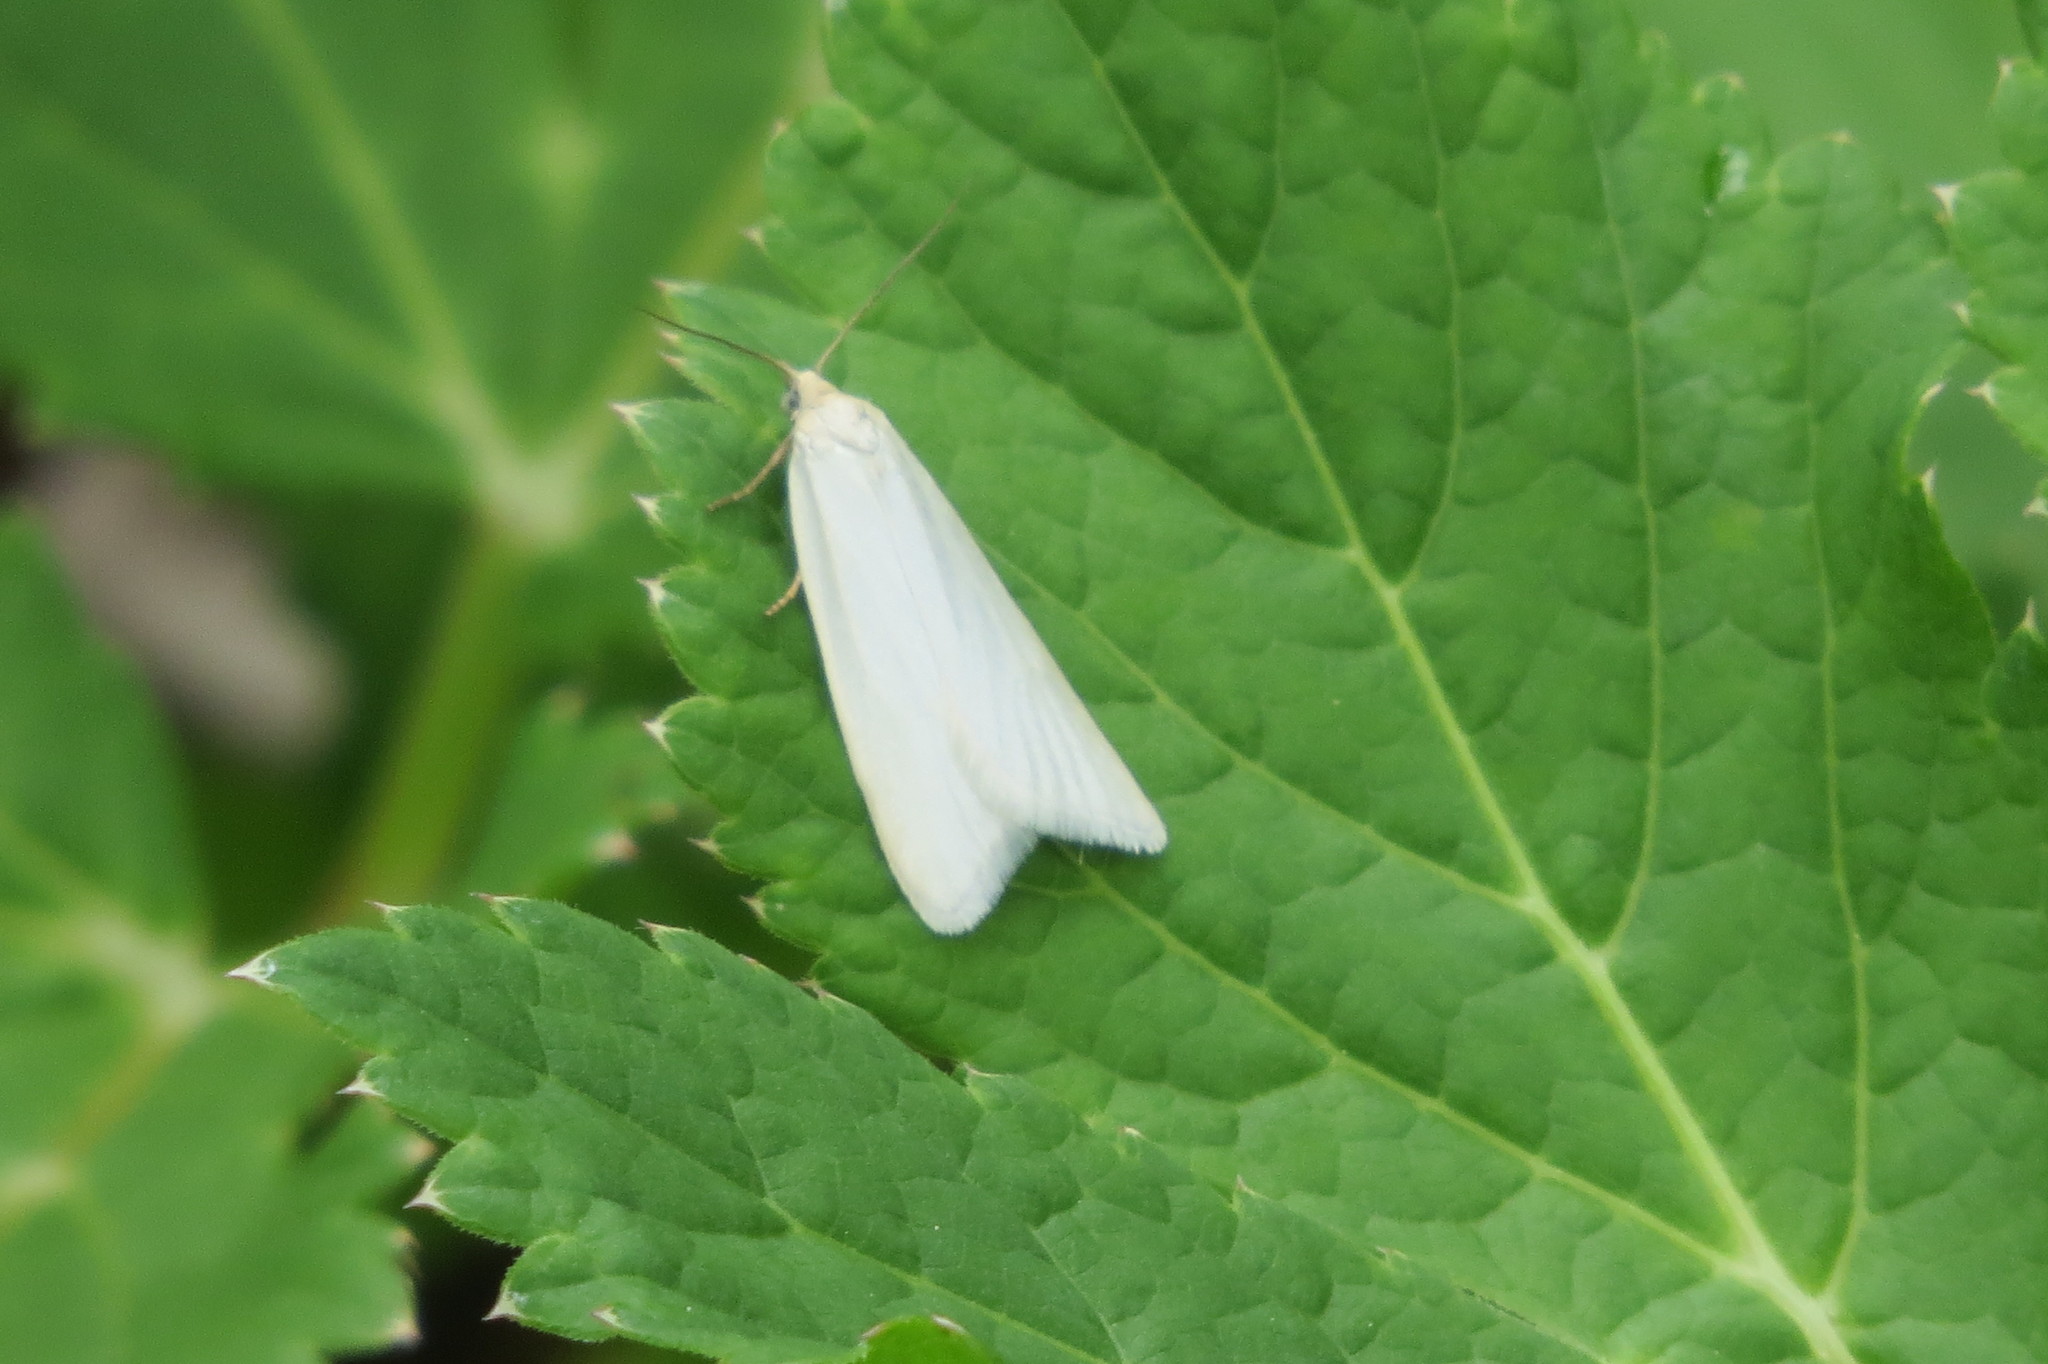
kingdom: Animalia
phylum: Arthropoda
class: Insecta
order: Lepidoptera
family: Tortricidae
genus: Eana
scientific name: Eana argentana
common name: Silver shade
